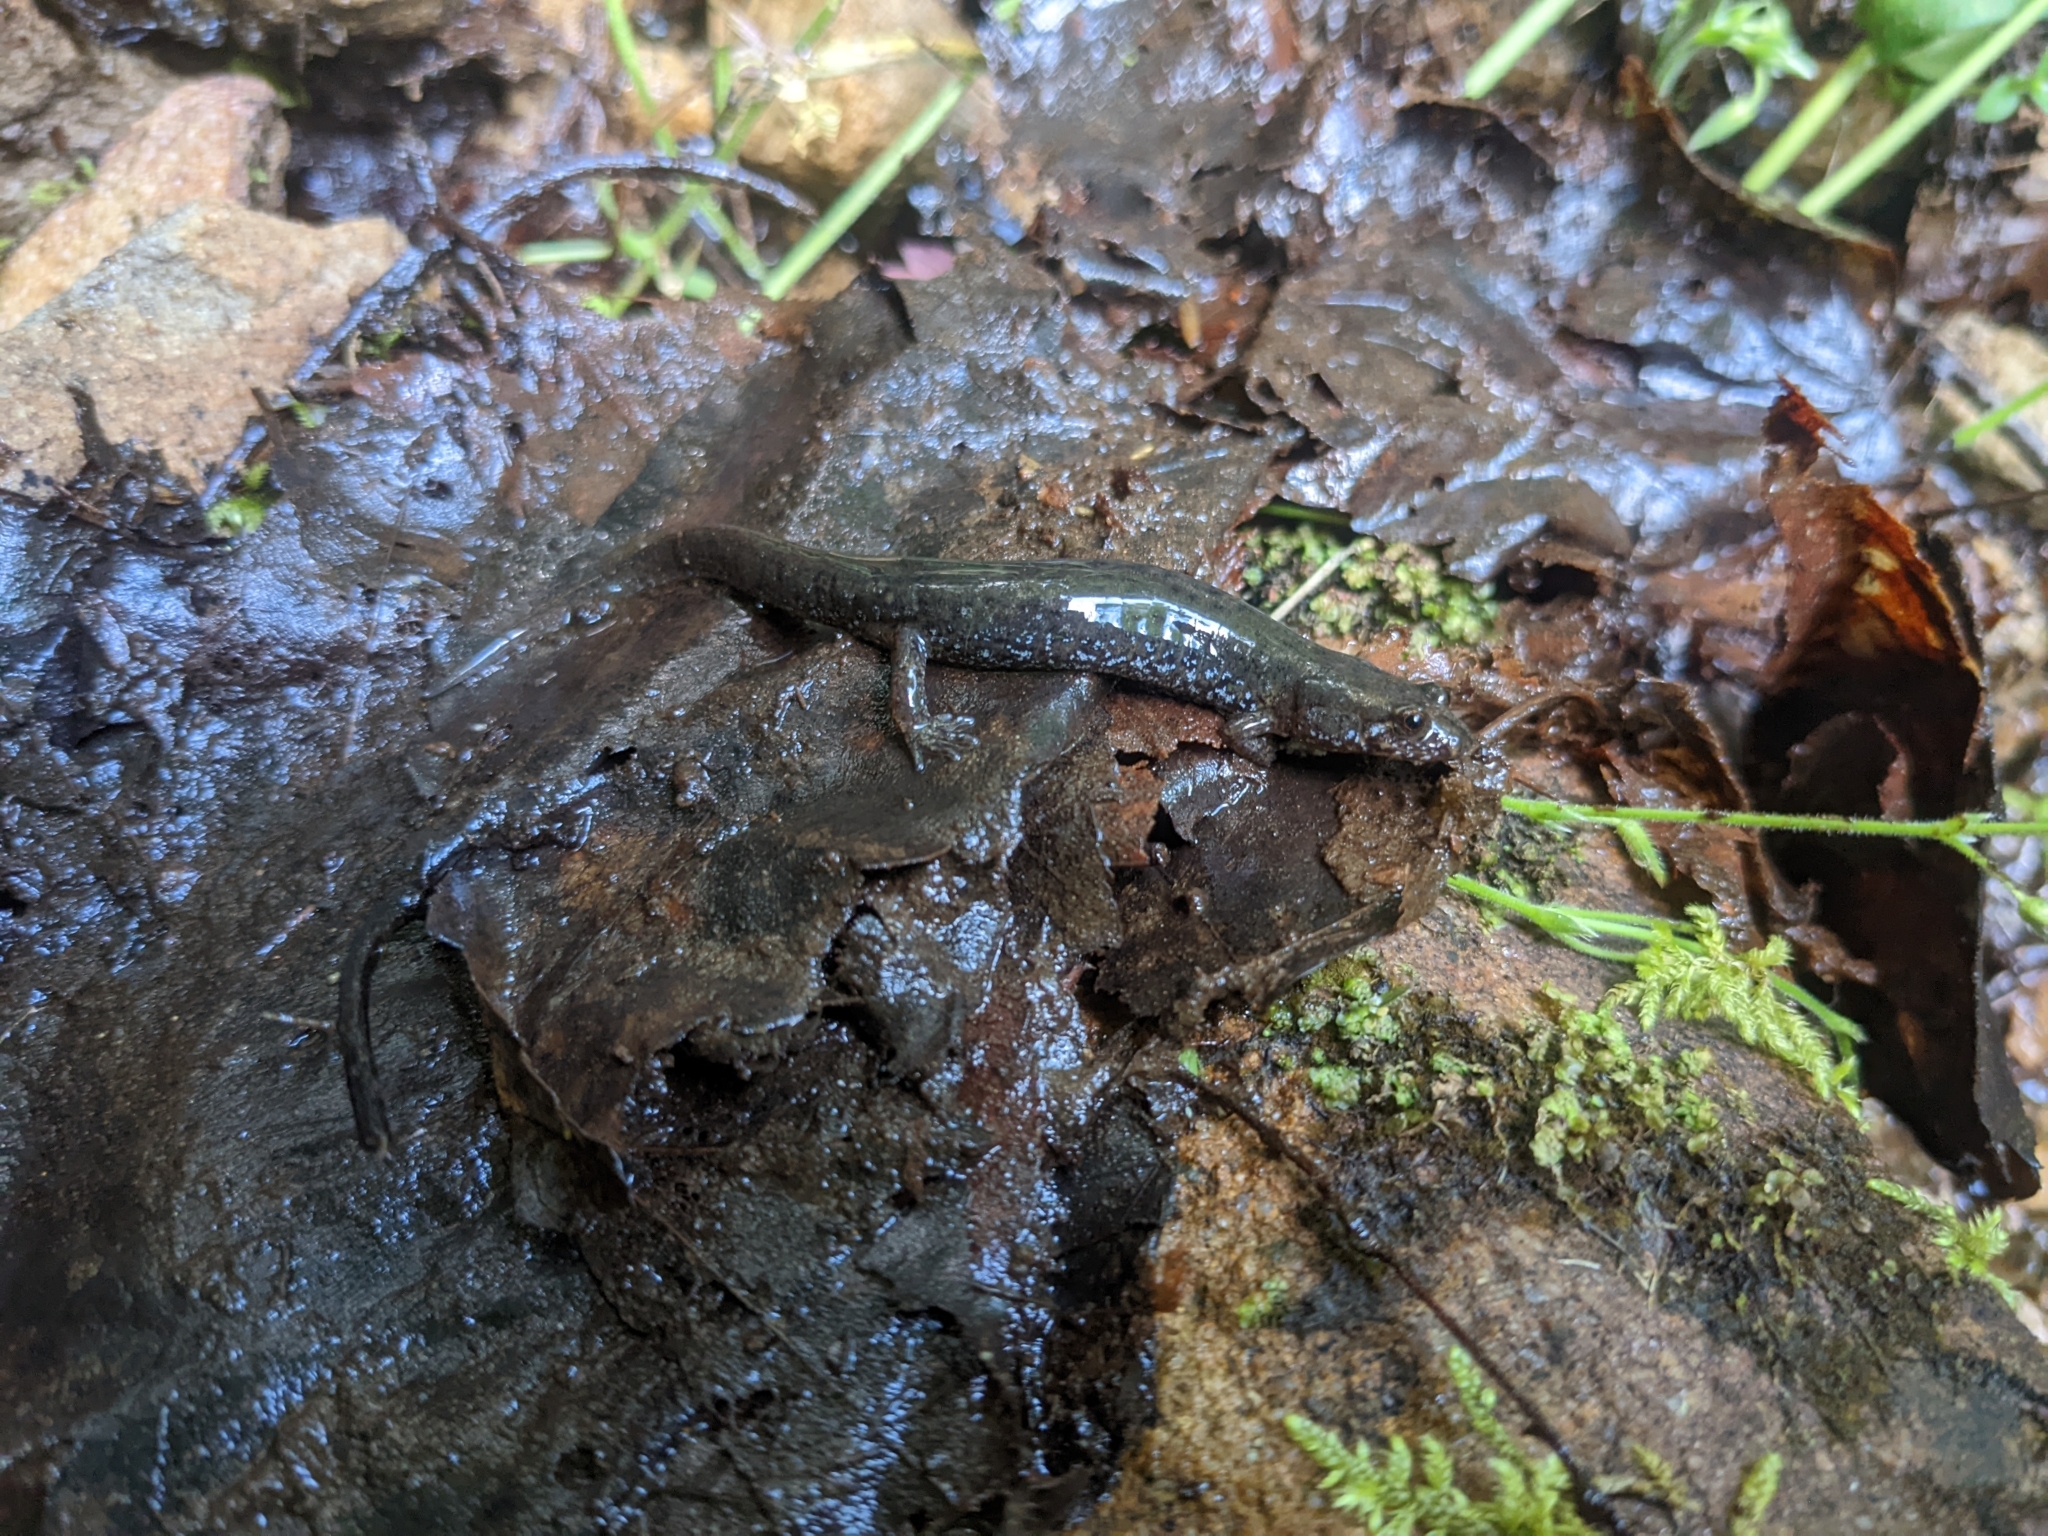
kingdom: Animalia
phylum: Chordata
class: Amphibia
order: Caudata
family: Plethodontidae
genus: Desmognathus
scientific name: Desmognathus fuscus
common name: Northern dusky salamander
